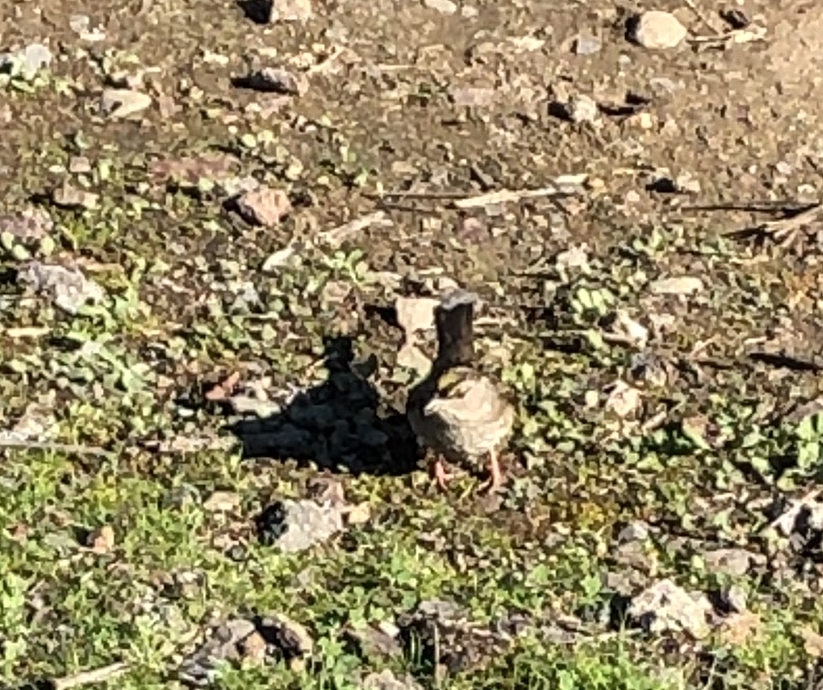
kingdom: Animalia
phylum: Chordata
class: Aves
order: Passeriformes
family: Passerellidae
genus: Zonotrichia
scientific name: Zonotrichia atricapilla
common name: Golden-crowned sparrow
